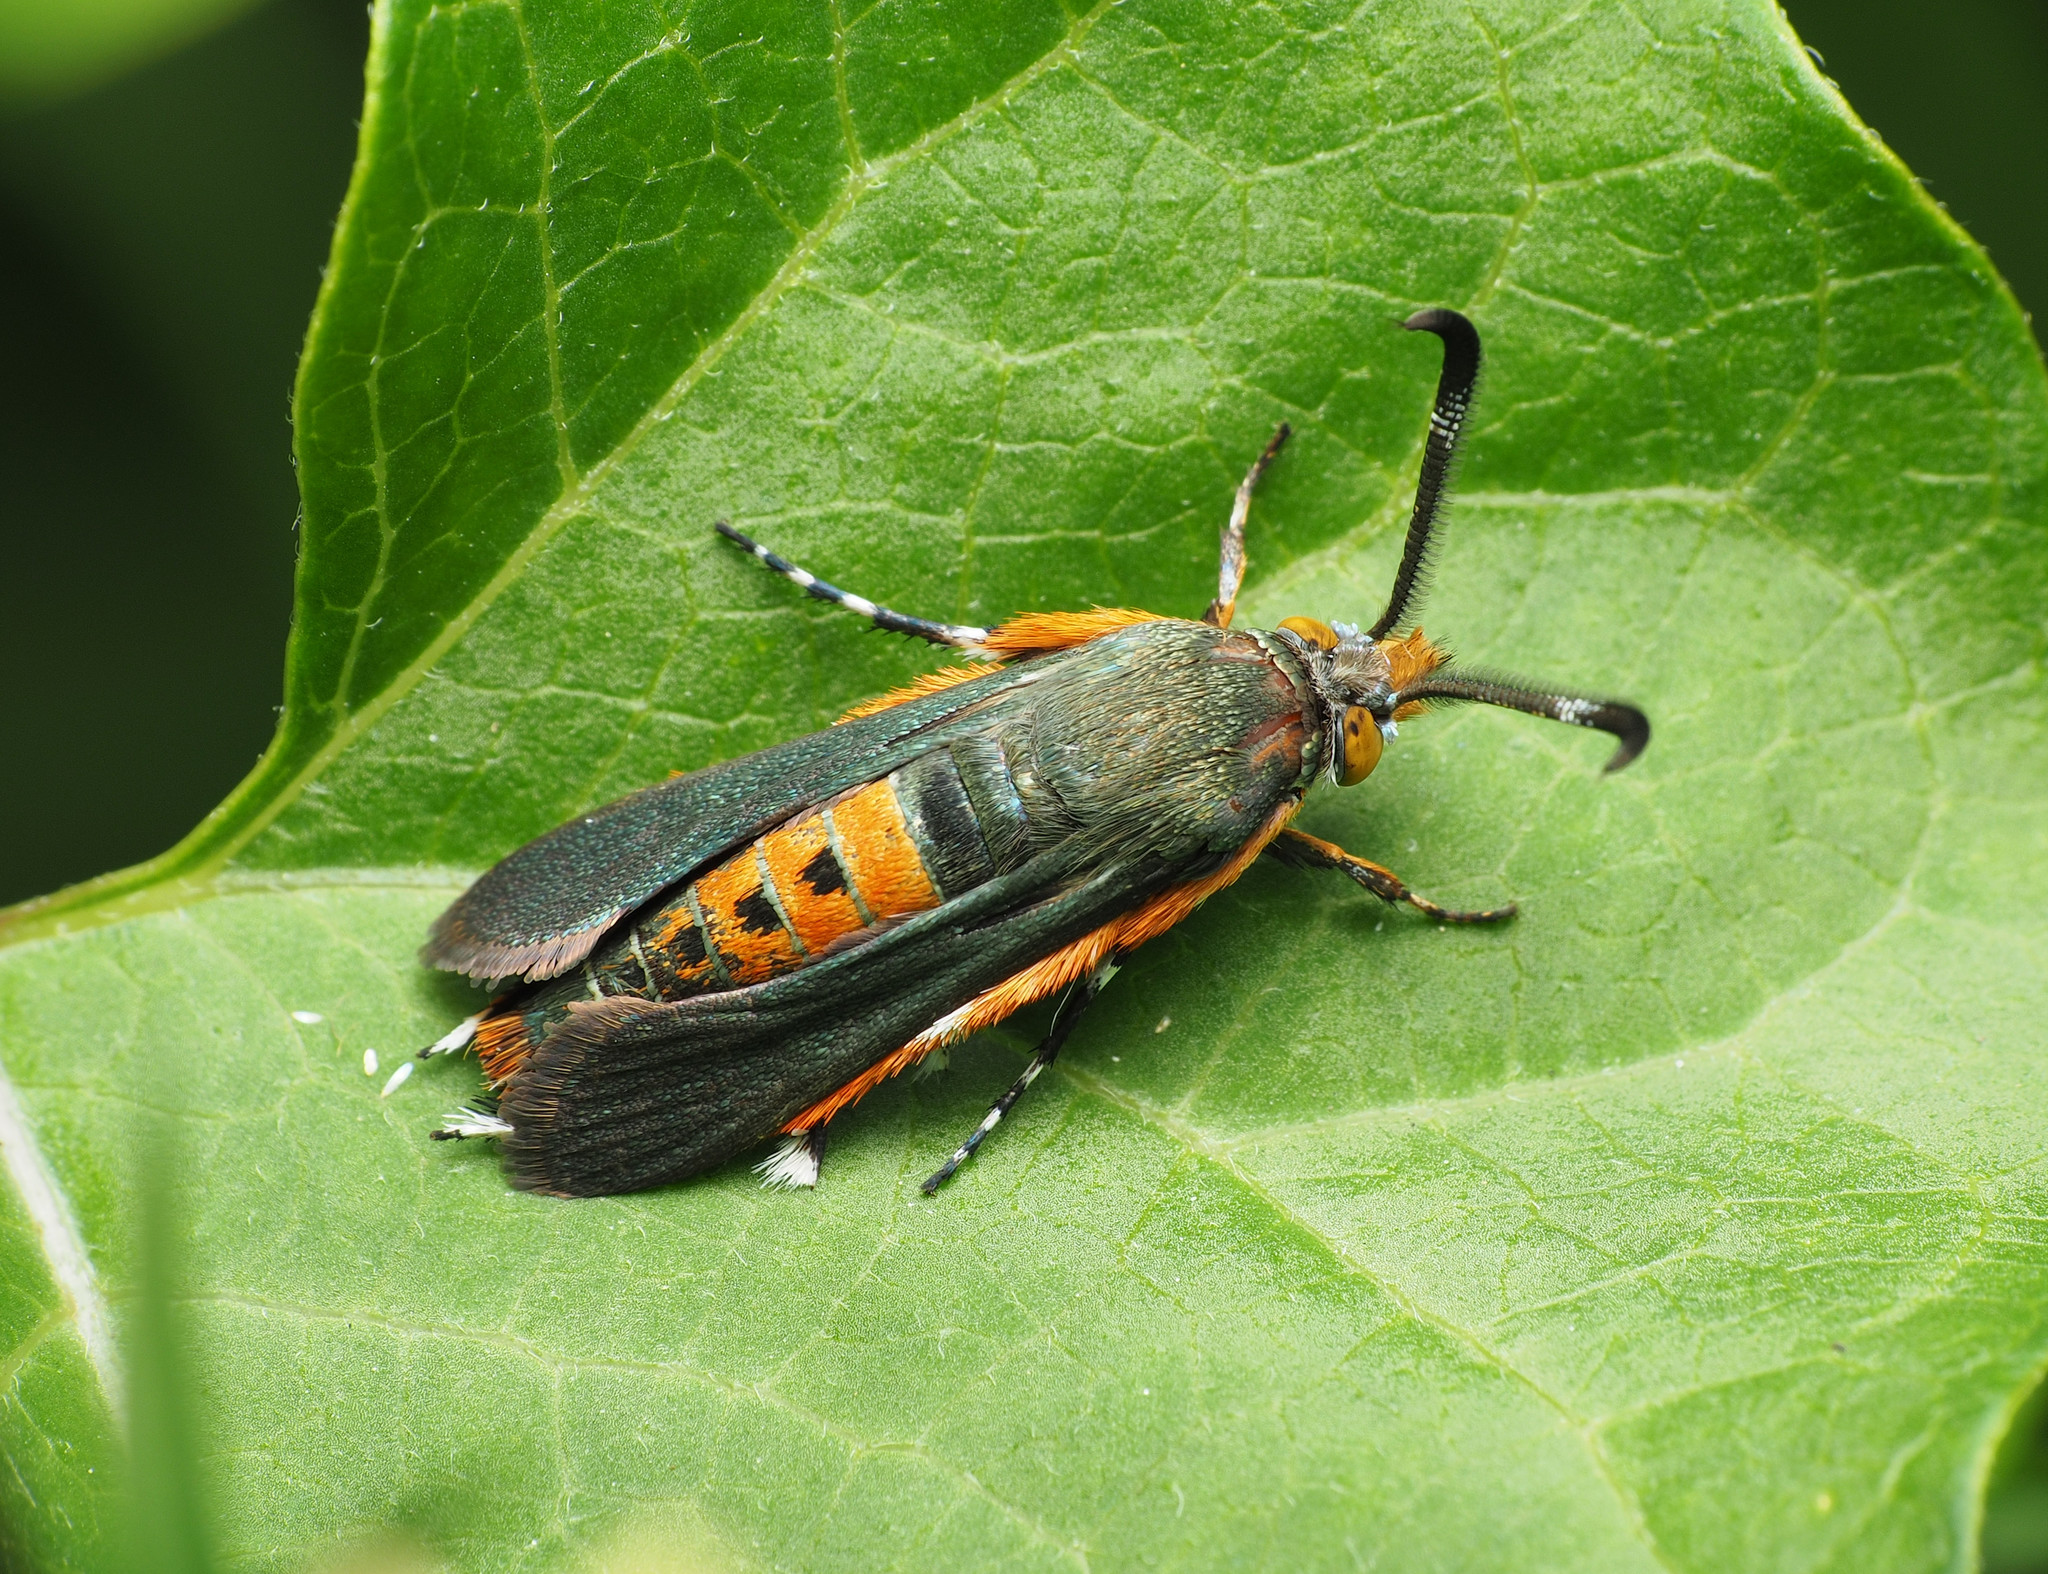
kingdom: Animalia
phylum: Arthropoda
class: Insecta
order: Lepidoptera
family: Sesiidae
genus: Eichlinia
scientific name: Eichlinia cucurbitae
